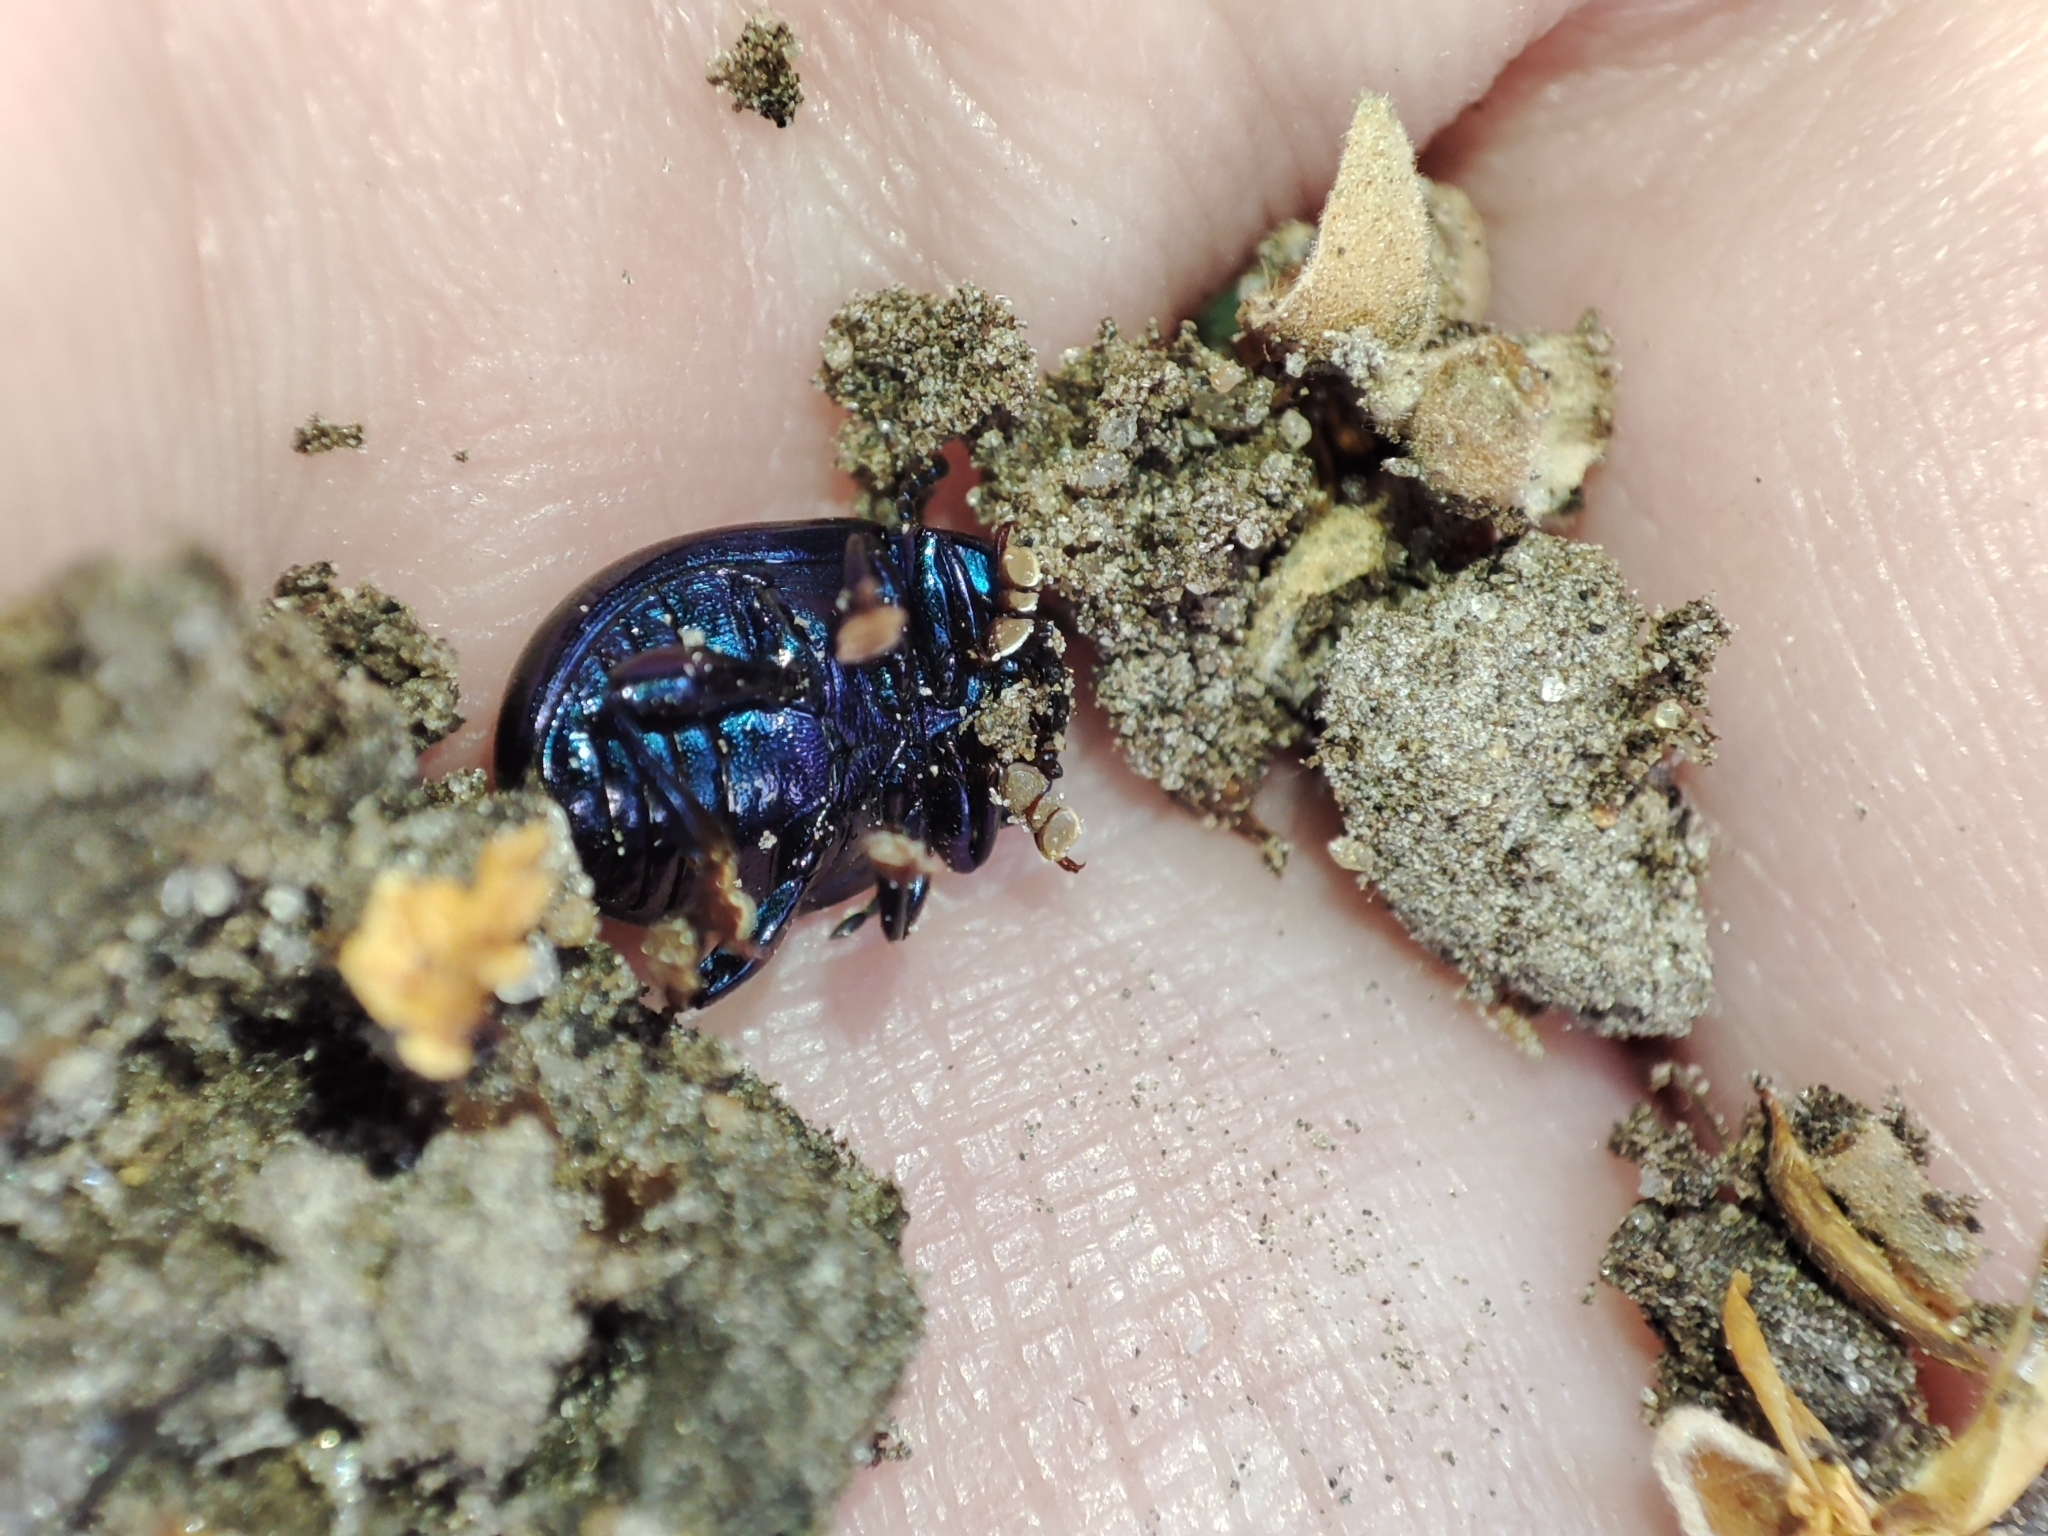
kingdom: Animalia
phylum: Arthropoda
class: Insecta
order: Coleoptera
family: Chrysomelidae
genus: Chrysolina
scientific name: Chrysolina sturmi
